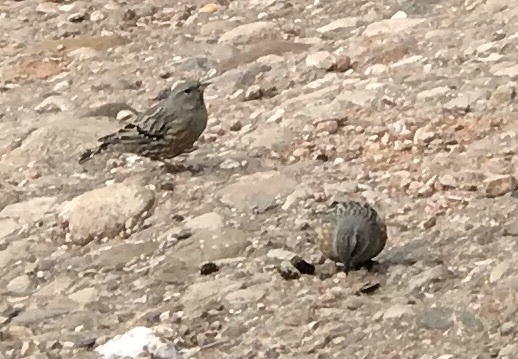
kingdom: Animalia
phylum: Chordata
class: Aves
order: Passeriformes
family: Prunellidae
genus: Prunella
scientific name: Prunella collaris
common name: Alpine accentor
